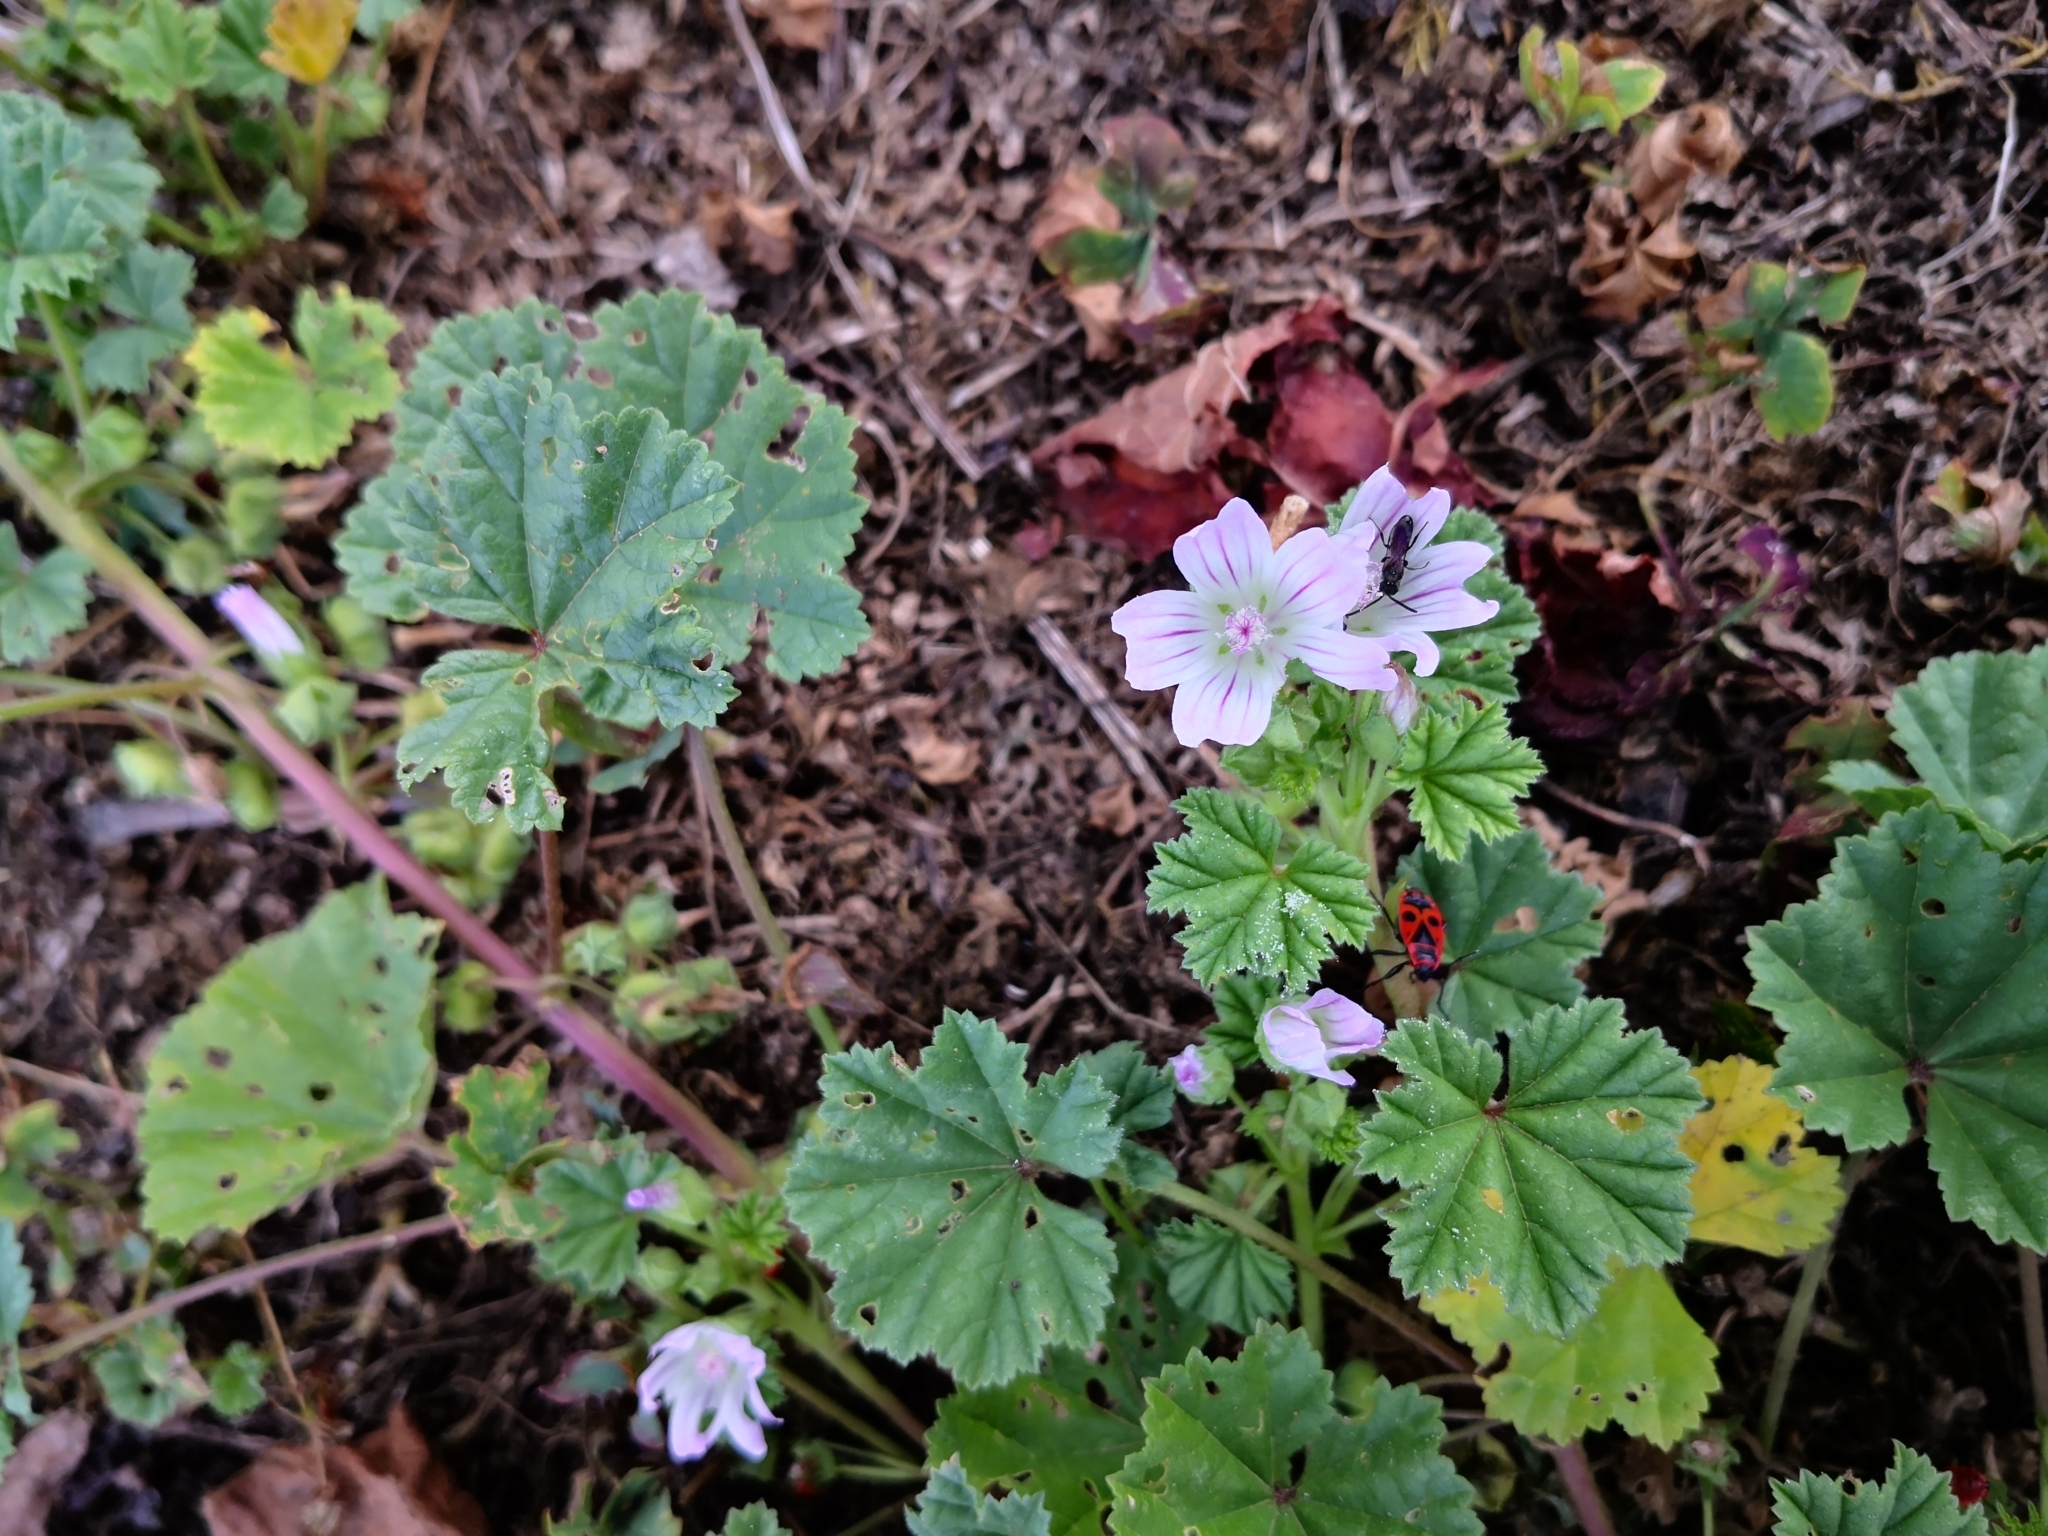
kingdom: Plantae
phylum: Tracheophyta
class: Magnoliopsida
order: Malvales
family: Malvaceae
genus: Malva
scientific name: Malva neglecta
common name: Common mallow
